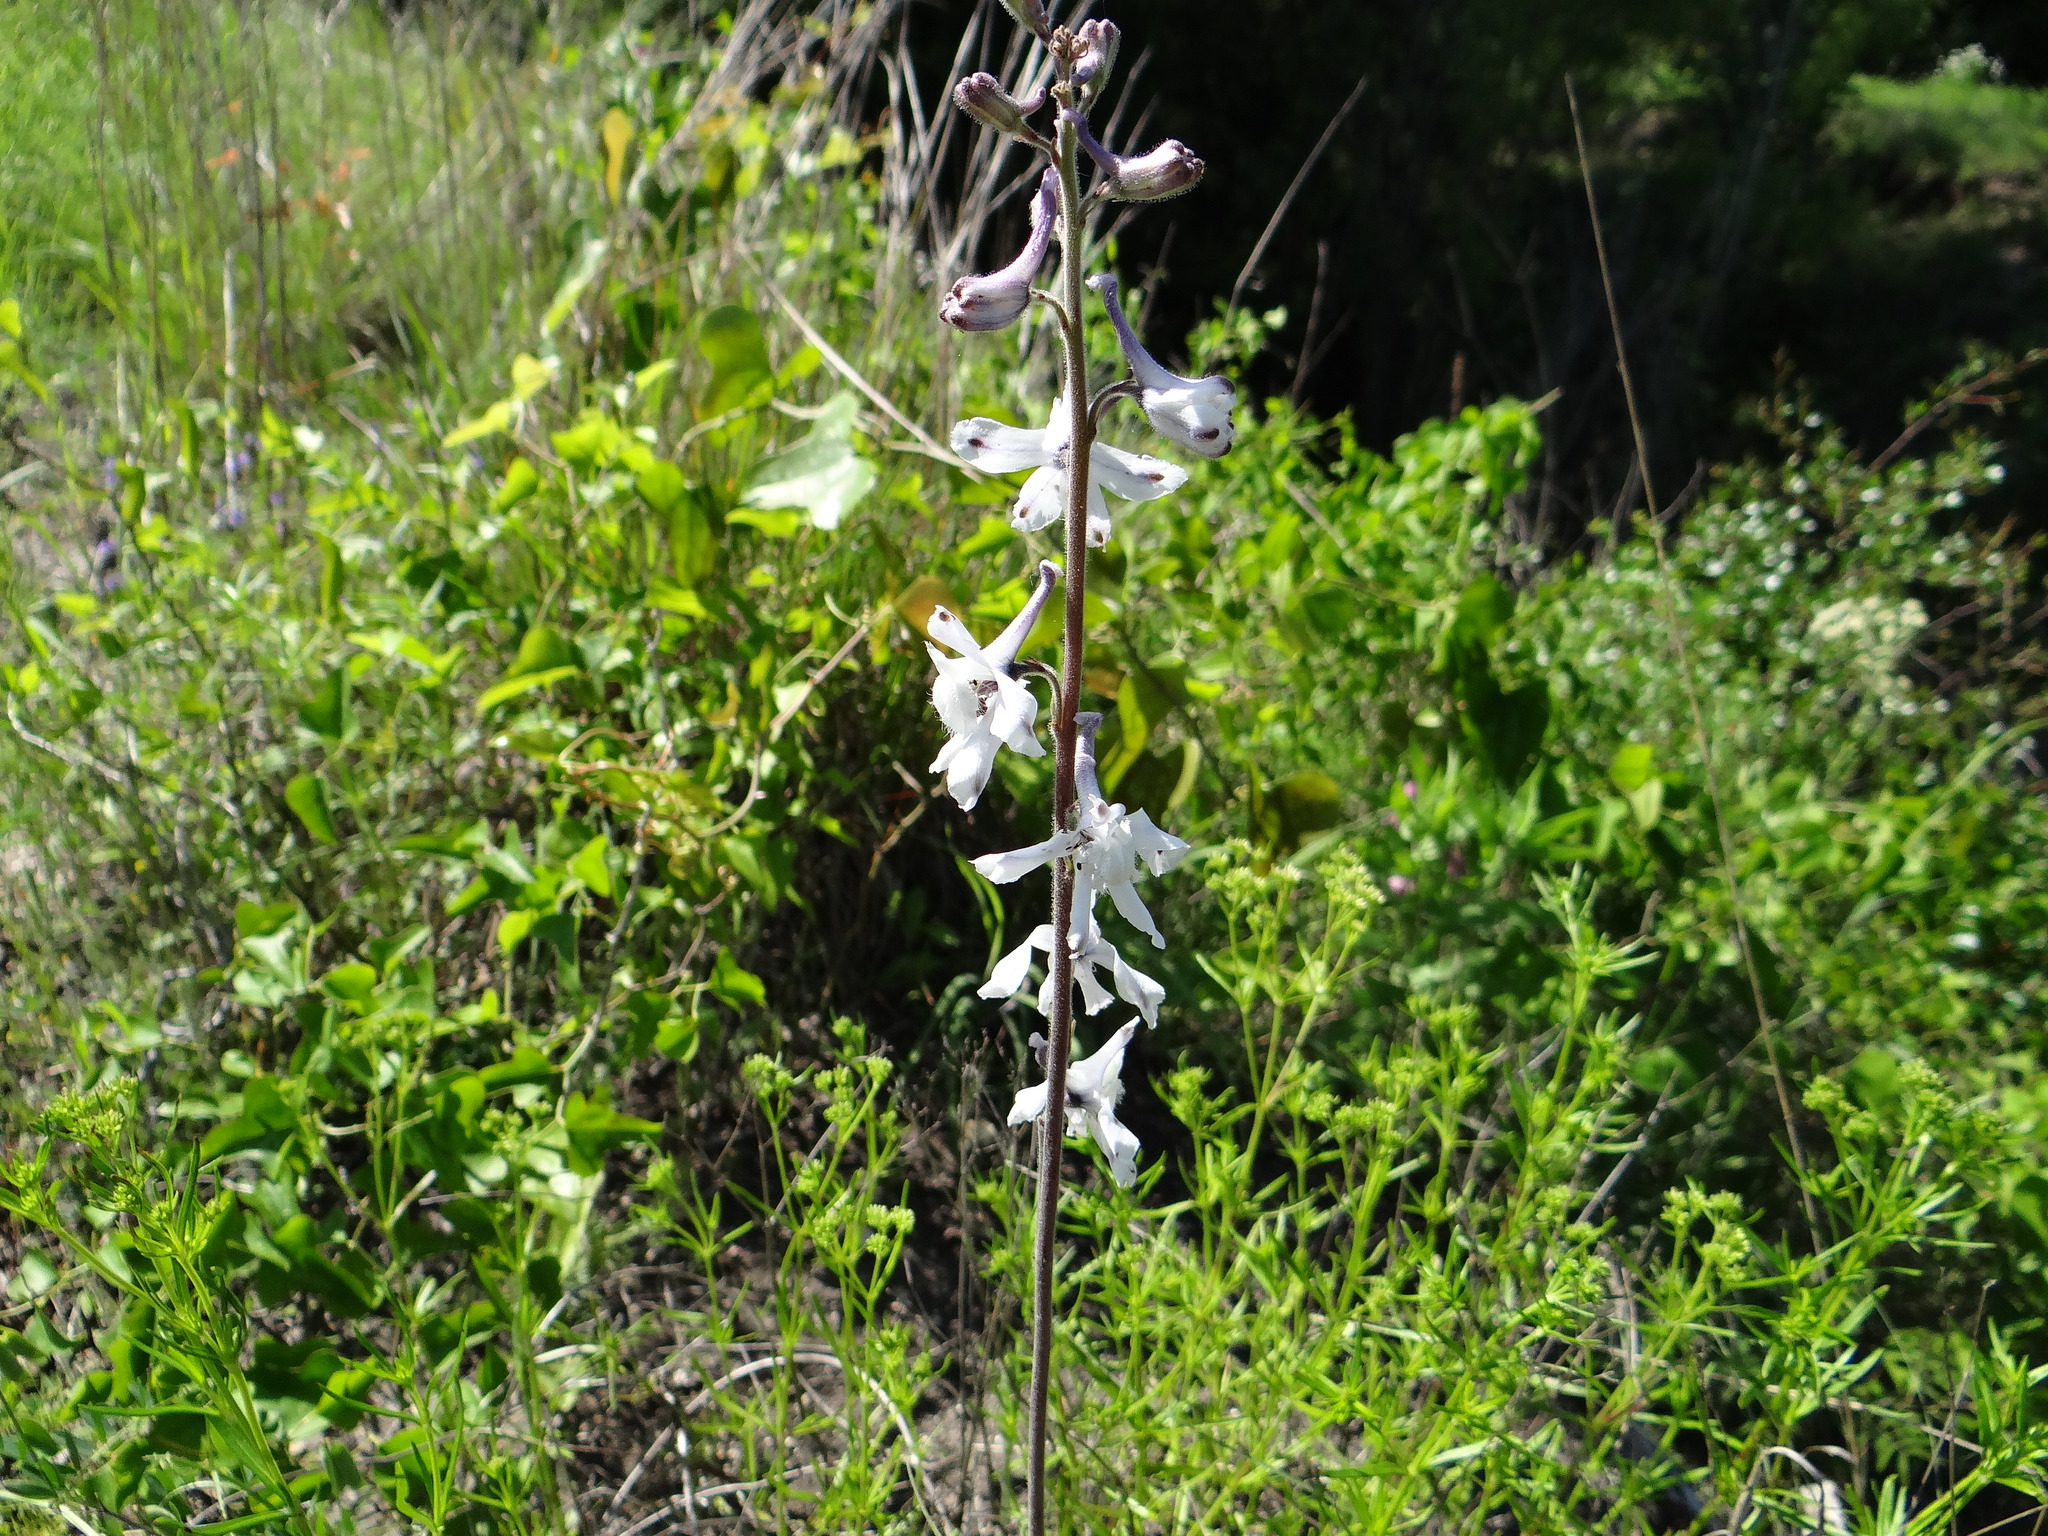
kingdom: Plantae
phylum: Tracheophyta
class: Magnoliopsida
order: Ranunculales
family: Ranunculaceae
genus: Delphinium
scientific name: Delphinium carolinianum
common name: Carolina larkspur
